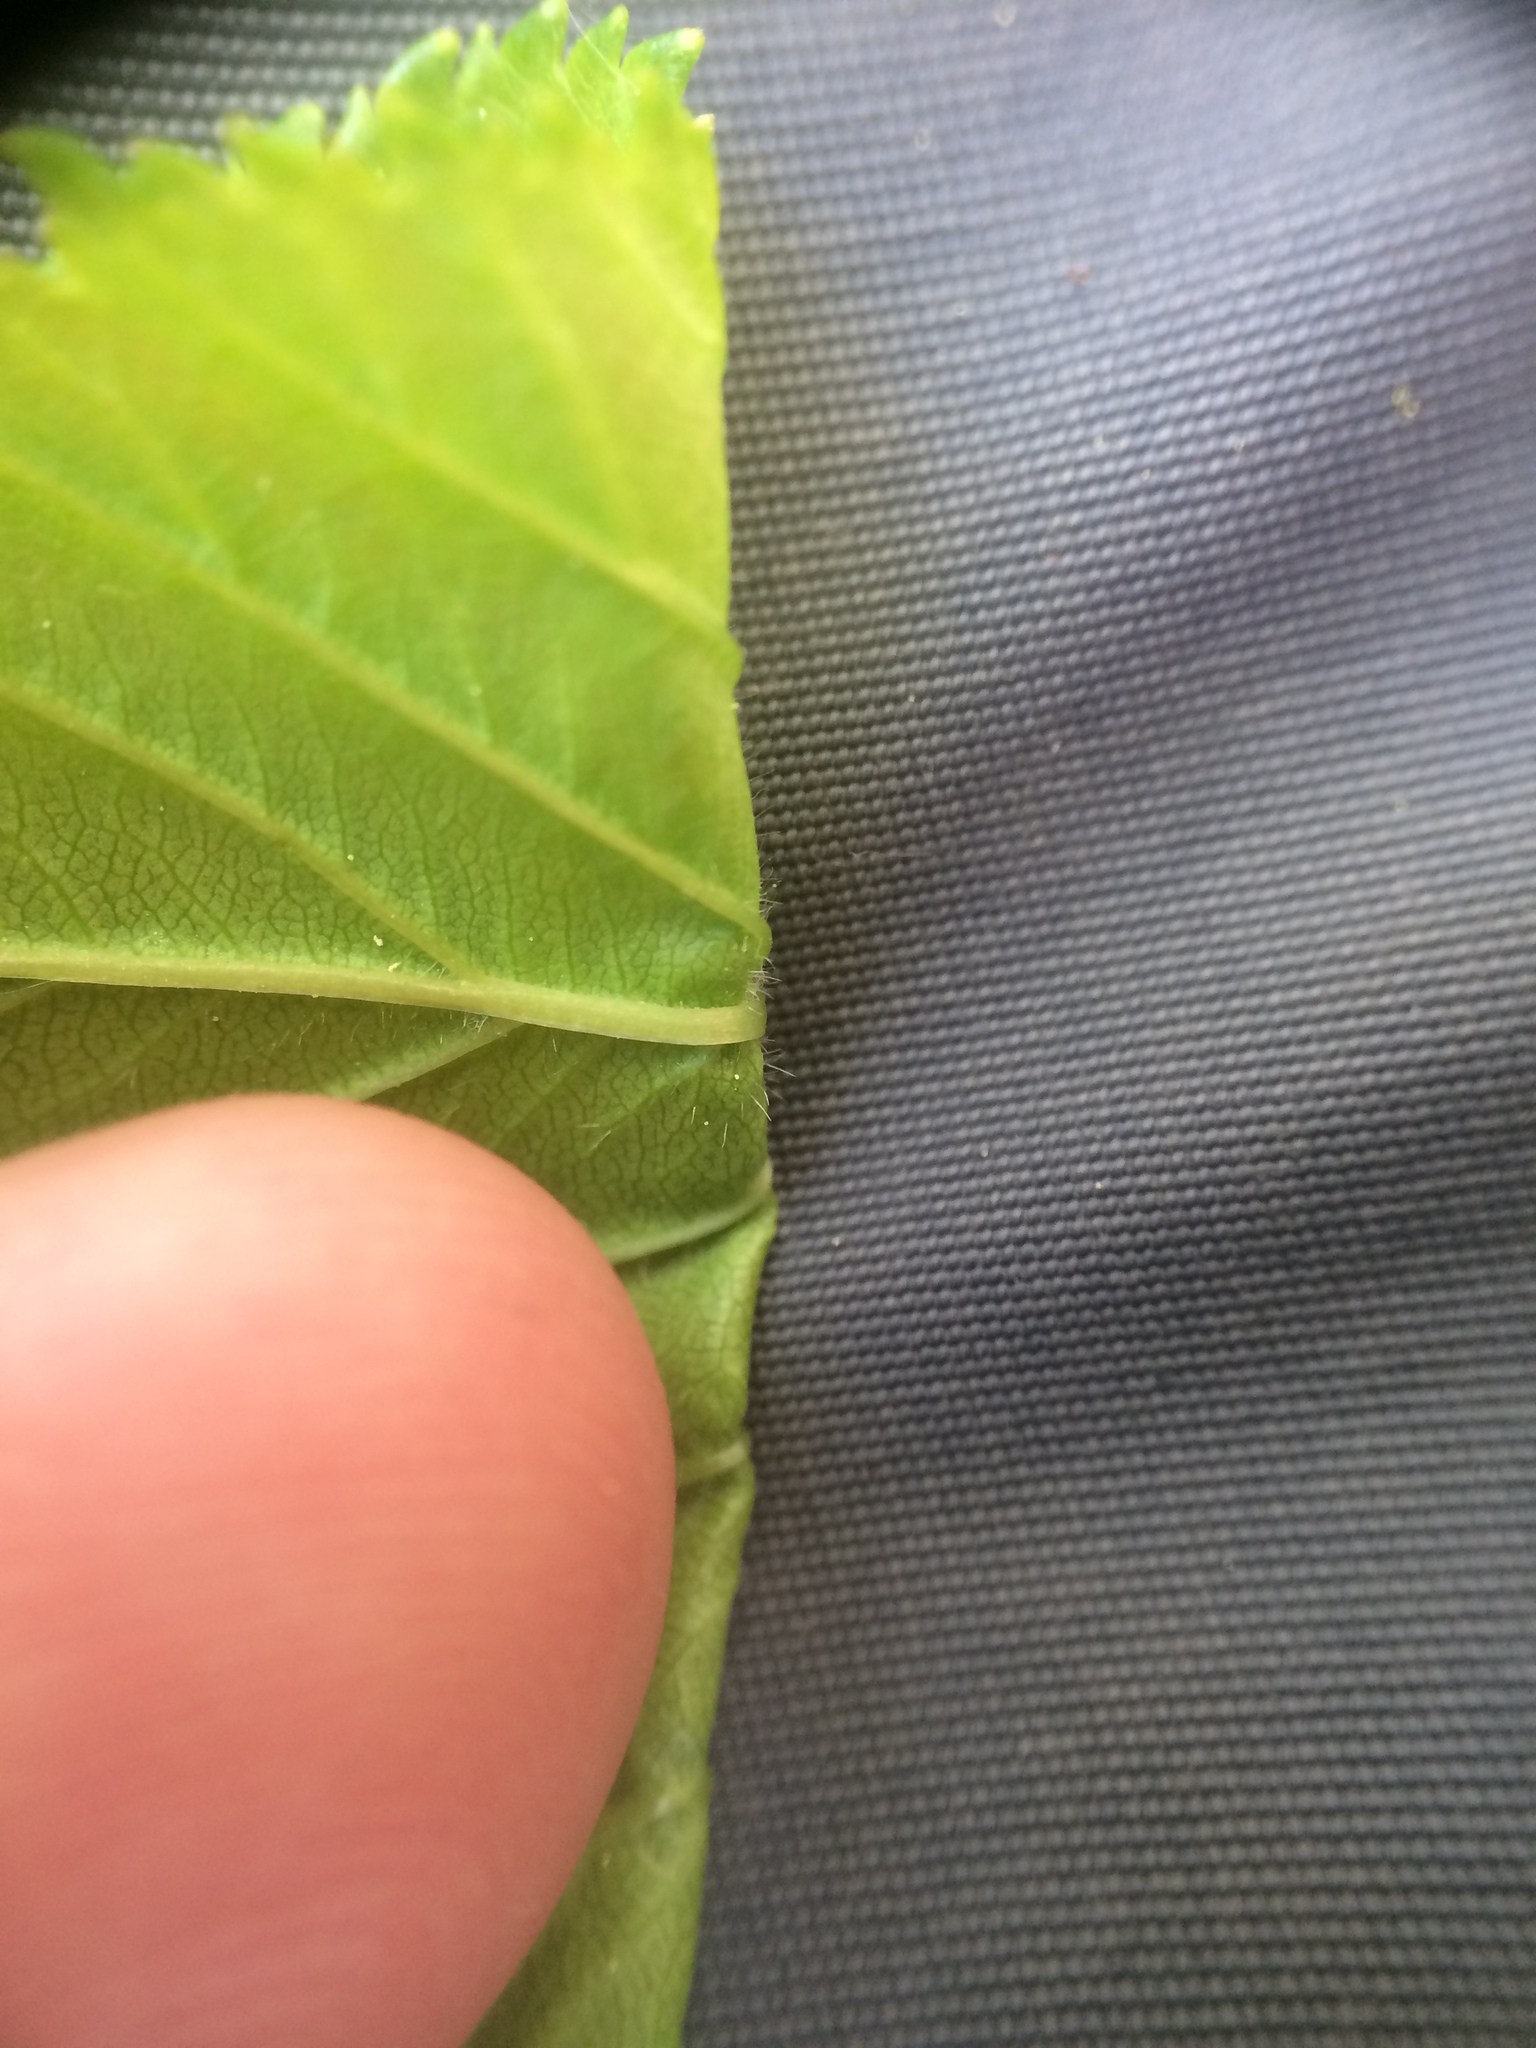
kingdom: Plantae
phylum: Tracheophyta
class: Magnoliopsida
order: Rosales
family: Rosaceae
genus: Crataegus
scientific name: Crataegus macracantha
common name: Large-thorn hawthorn
